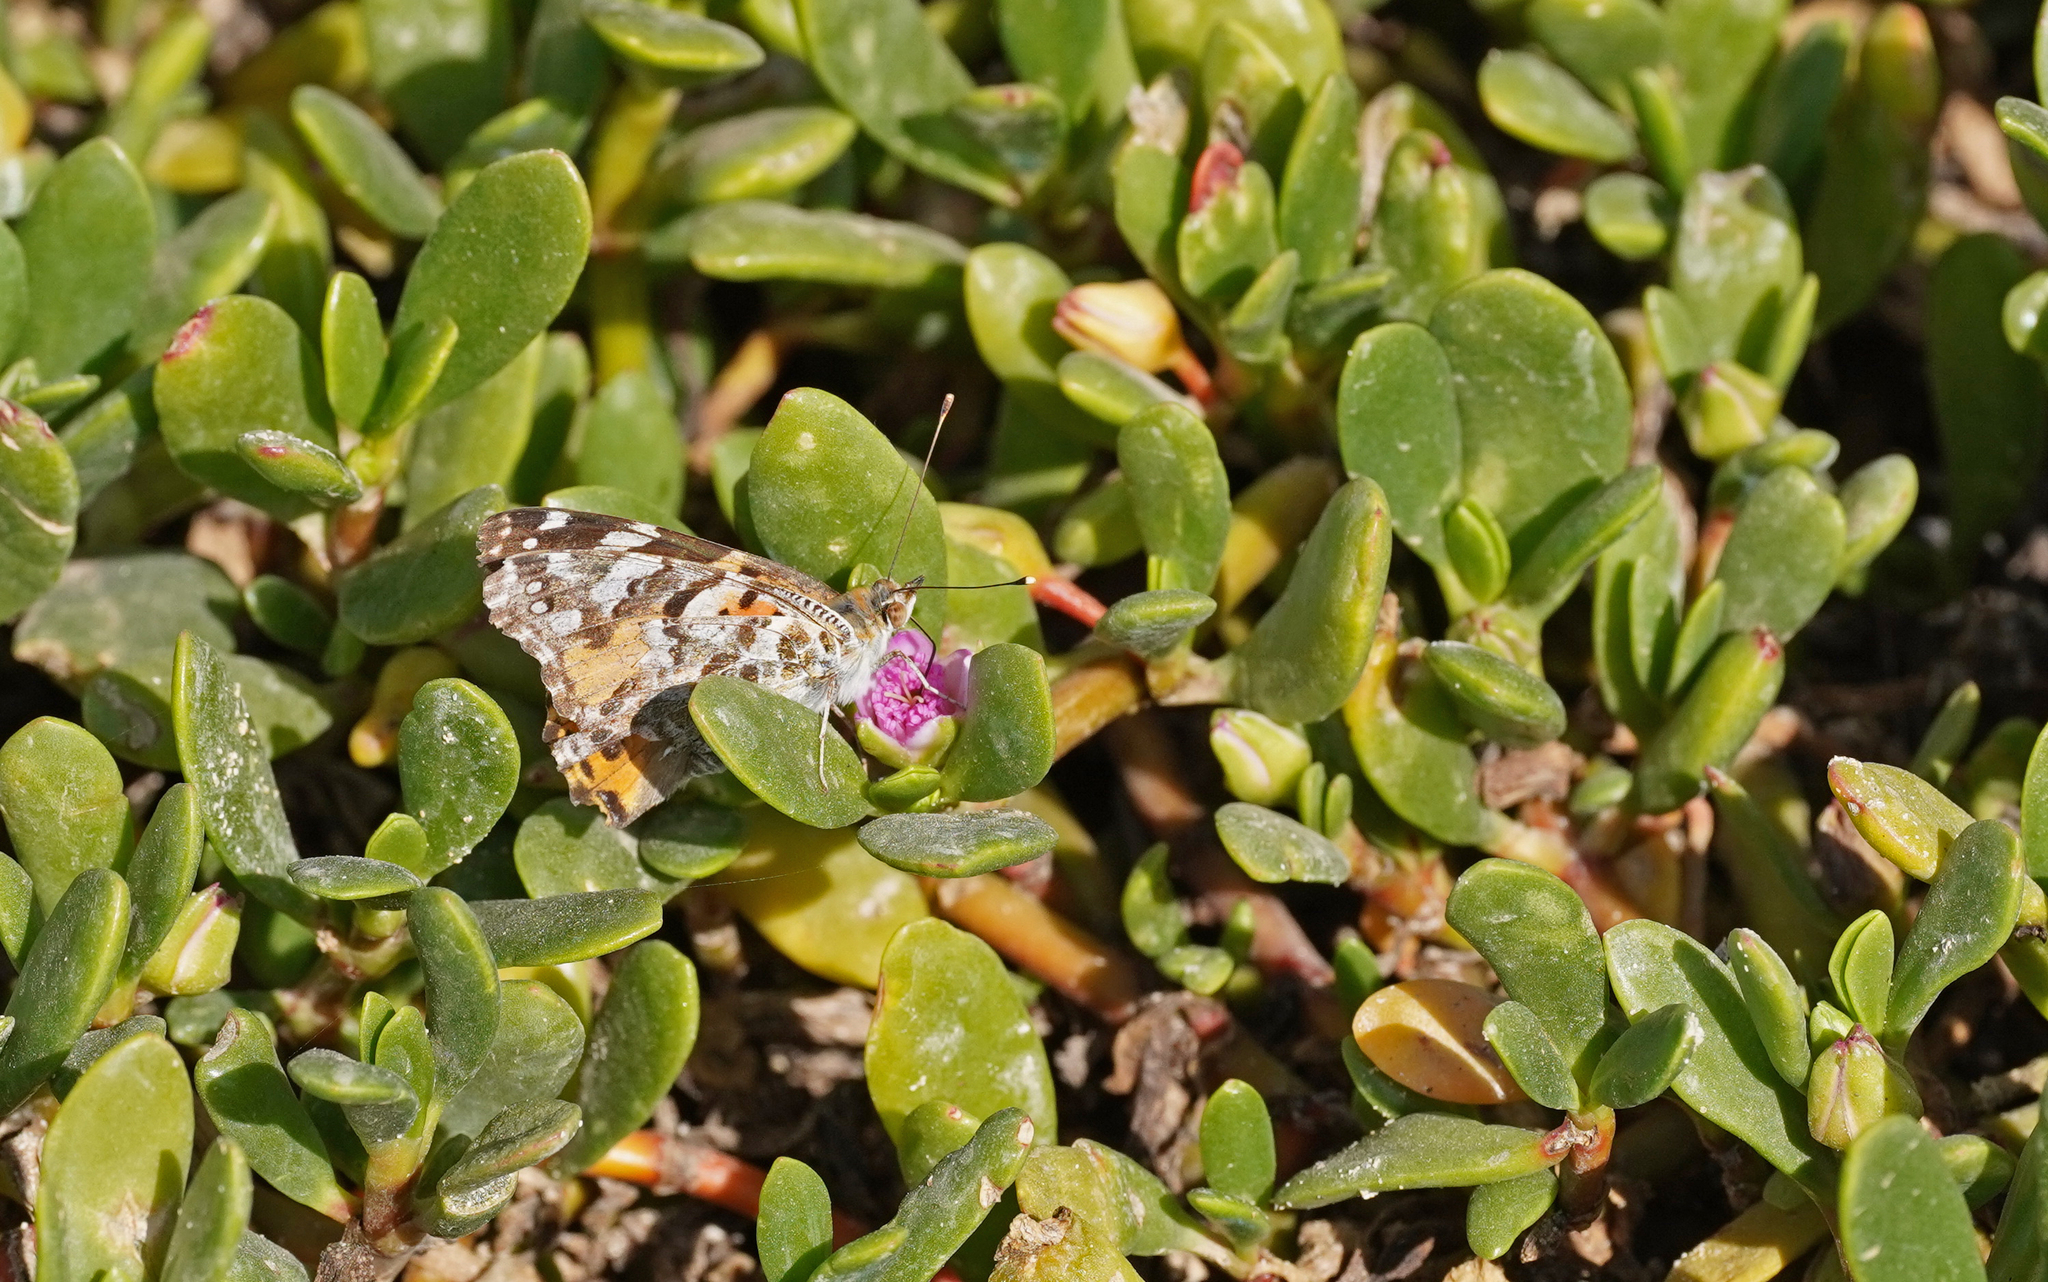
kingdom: Animalia
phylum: Arthropoda
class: Insecta
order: Lepidoptera
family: Nymphalidae
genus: Vanessa
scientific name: Vanessa cardui
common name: Painted lady
